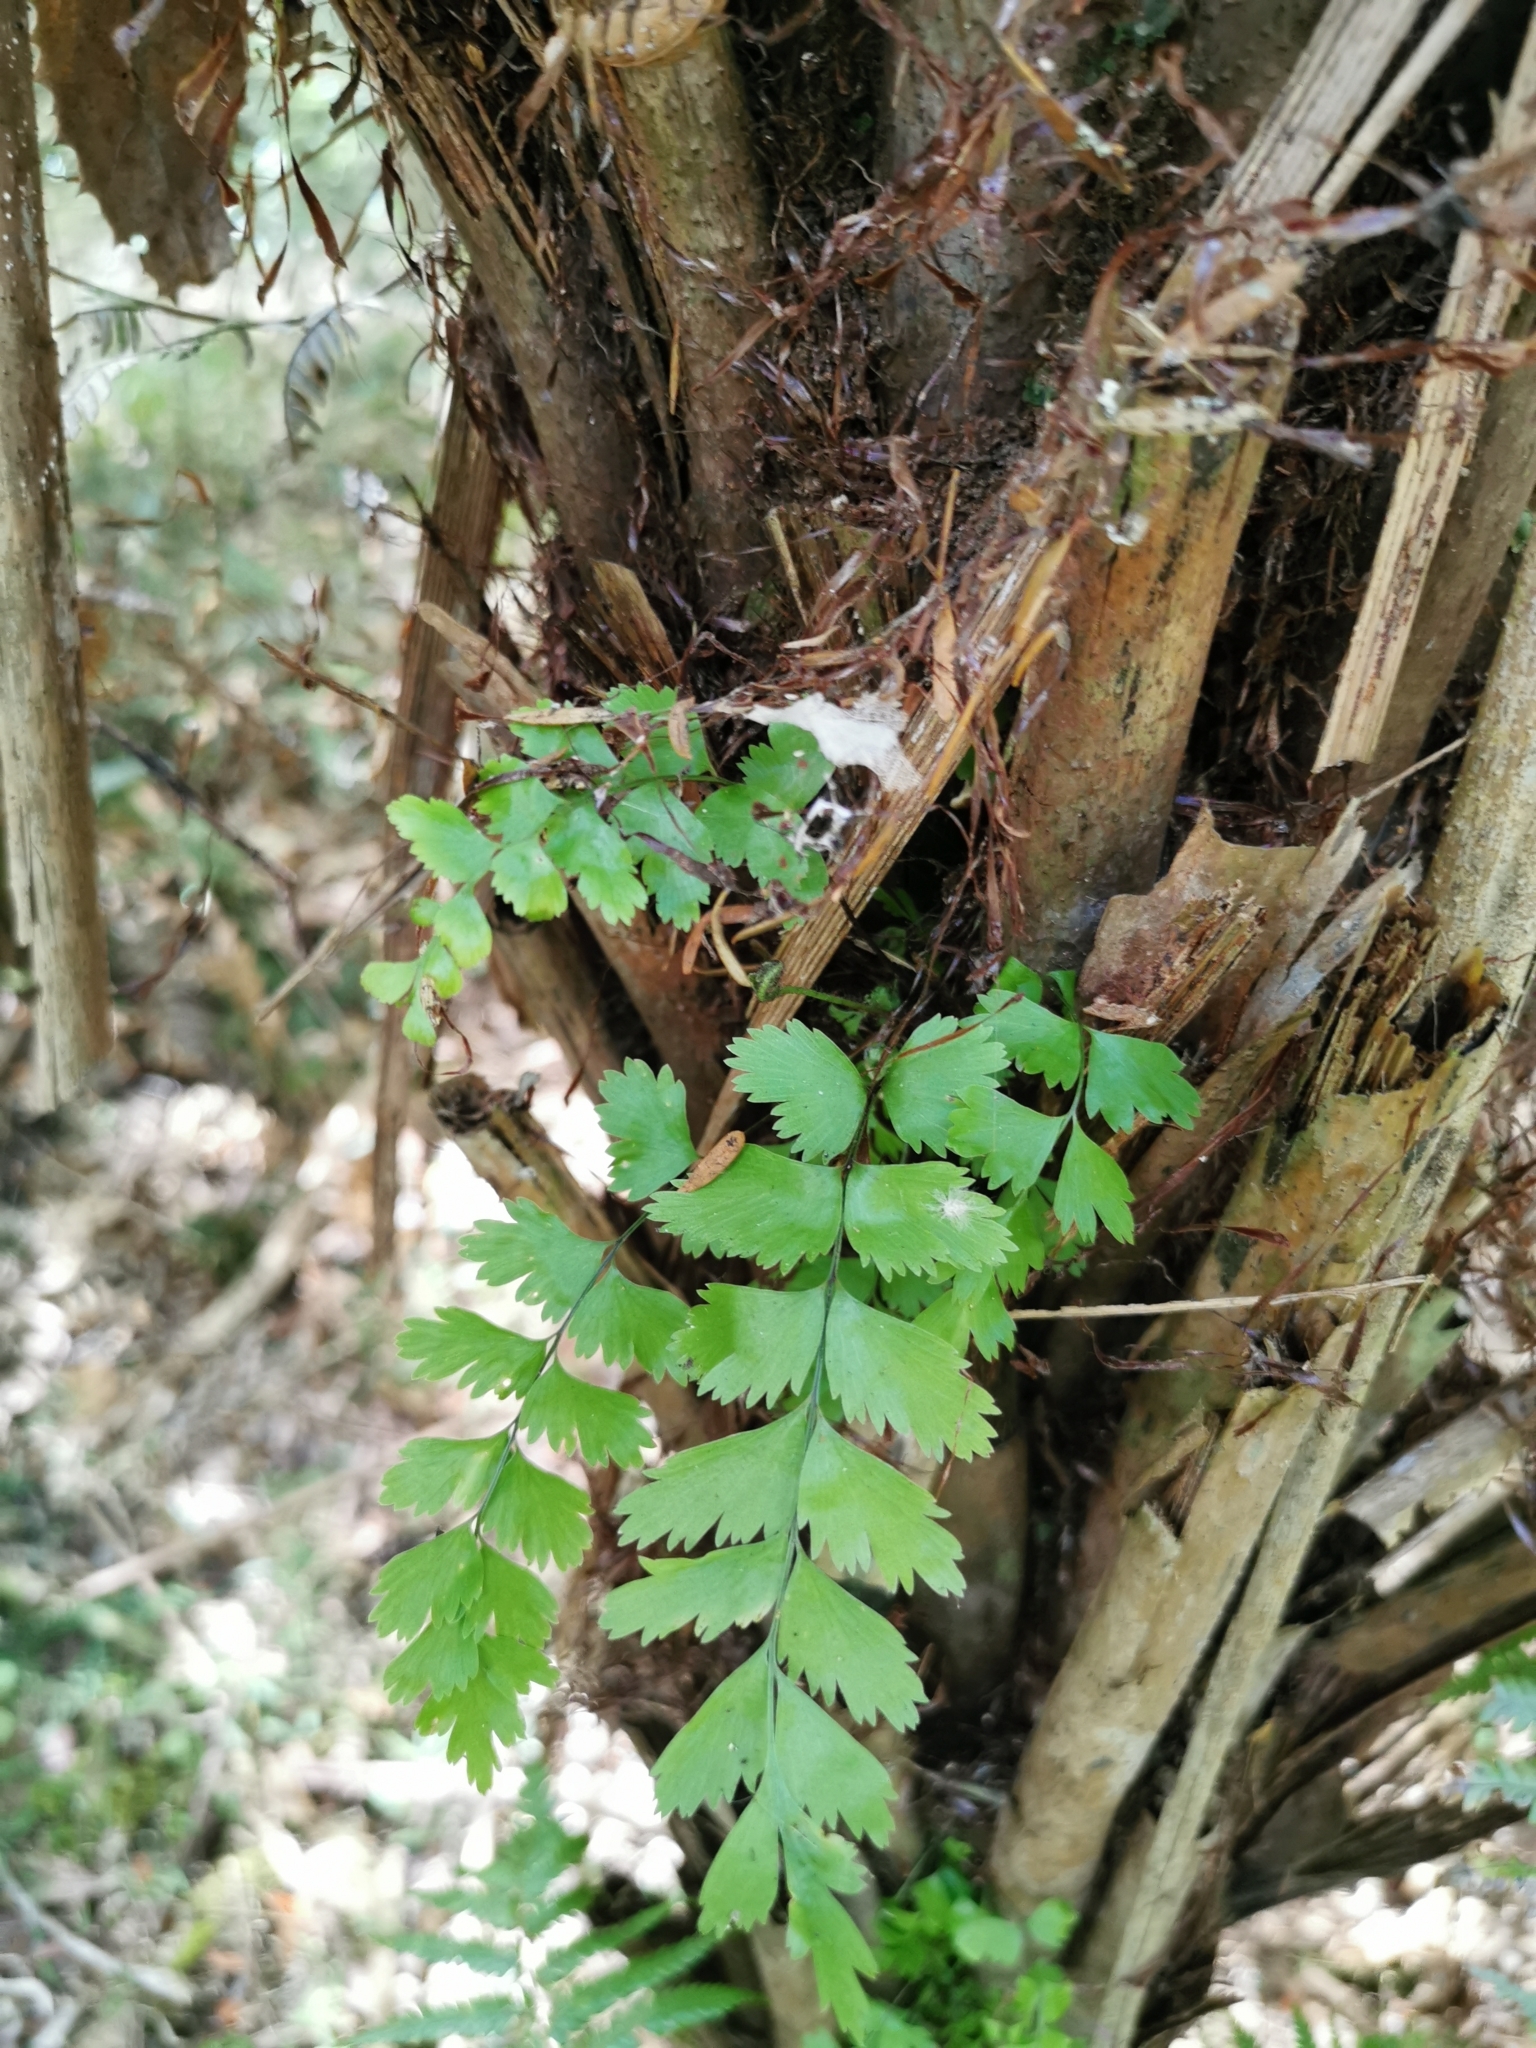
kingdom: Plantae
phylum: Tracheophyta
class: Polypodiopsida
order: Polypodiales
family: Aspleniaceae
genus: Asplenium
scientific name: Asplenium polyodon
